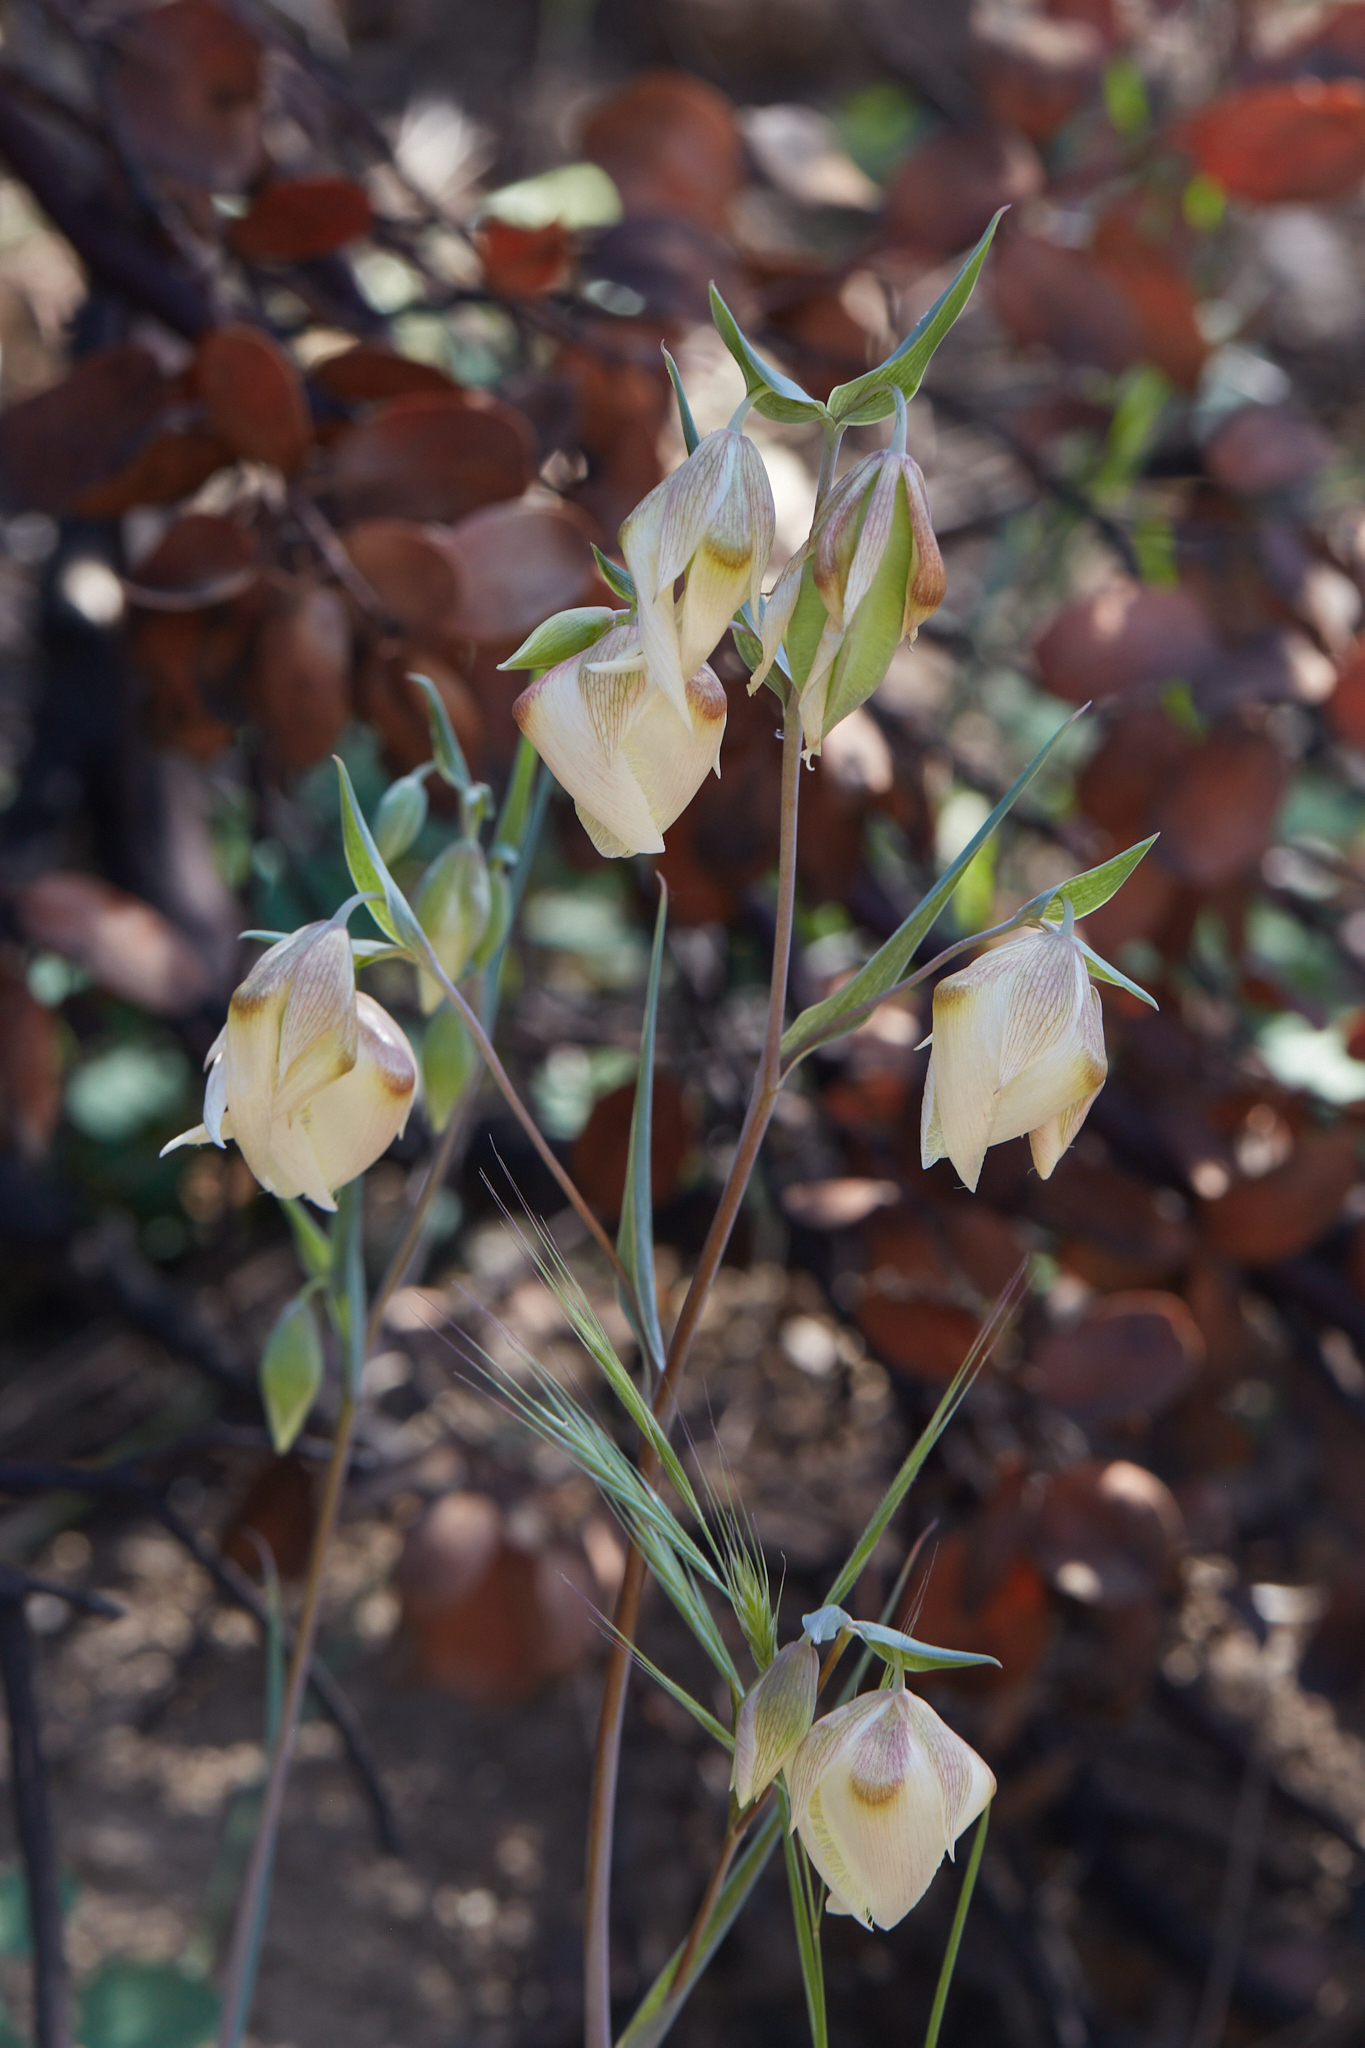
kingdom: Plantae
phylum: Tracheophyta
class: Liliopsida
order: Liliales
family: Liliaceae
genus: Calochortus
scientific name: Calochortus albus
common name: Fairy-lantern
